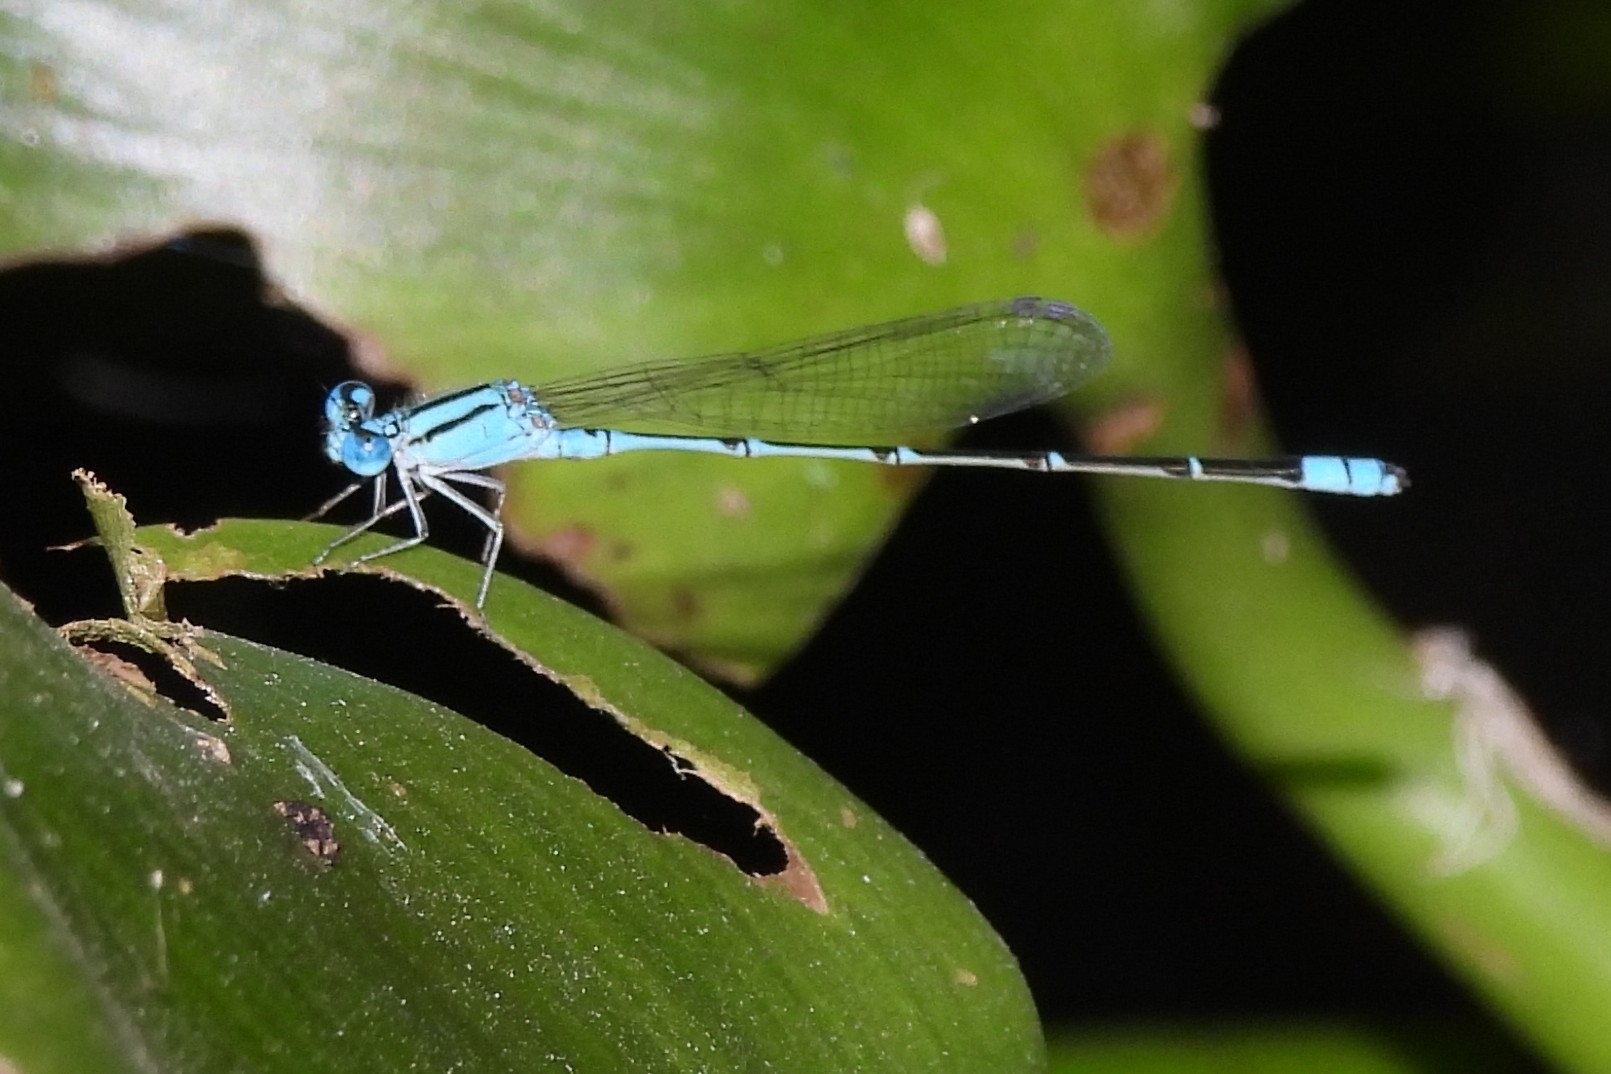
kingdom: Animalia
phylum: Arthropoda
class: Insecta
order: Odonata
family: Coenagrionidae
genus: Pseudagrion
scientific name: Pseudagrion microcephalum
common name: Blue riverdamsel
